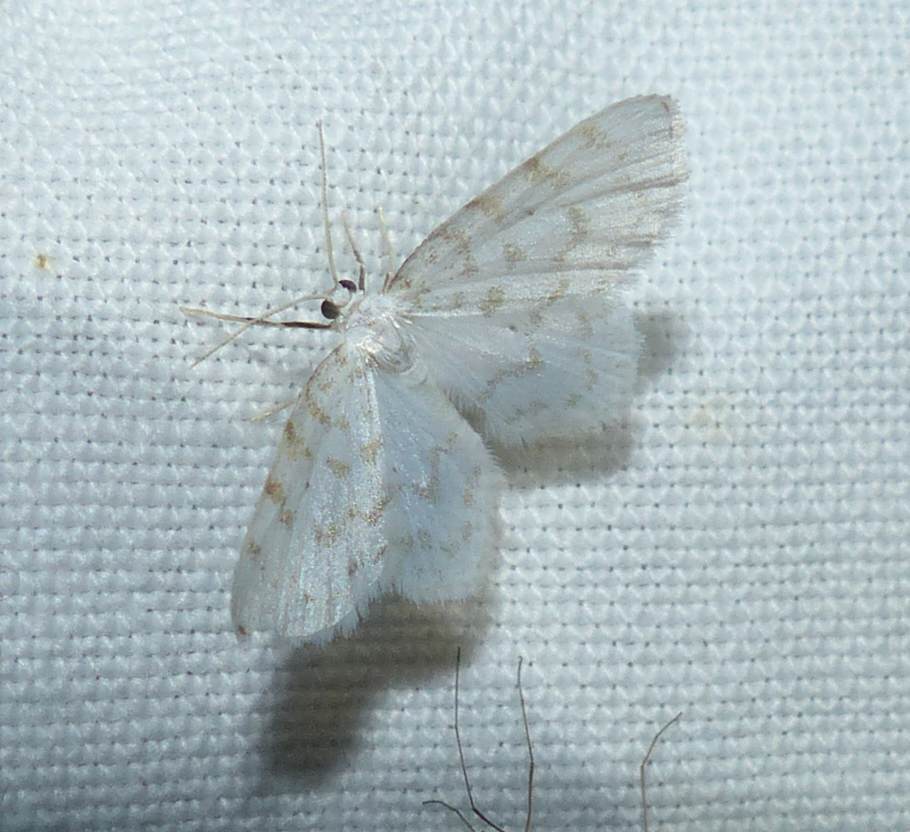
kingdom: Animalia
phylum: Arthropoda
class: Insecta
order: Lepidoptera
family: Geometridae
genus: Hydrelia
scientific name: Hydrelia albifera
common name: Fragile white carpet
